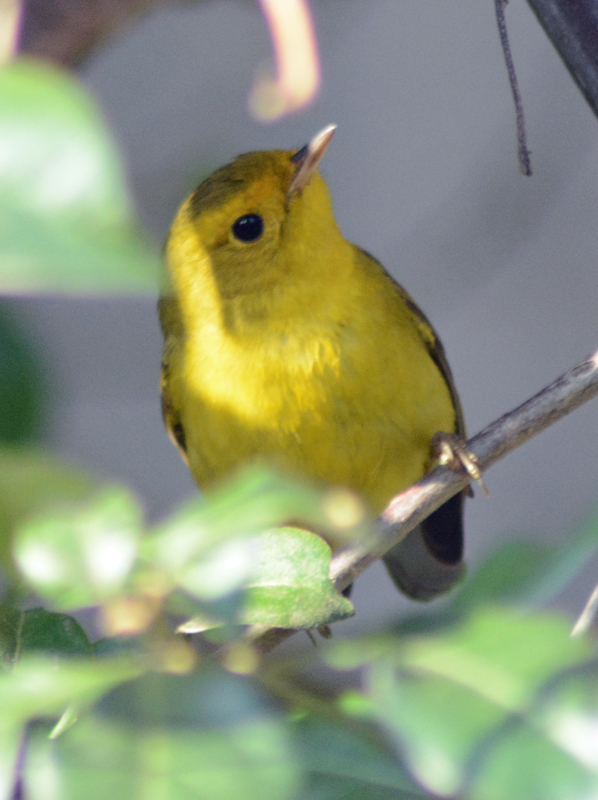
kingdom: Animalia
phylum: Chordata
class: Aves
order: Passeriformes
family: Parulidae
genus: Cardellina
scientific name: Cardellina pusilla
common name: Wilson's warbler
